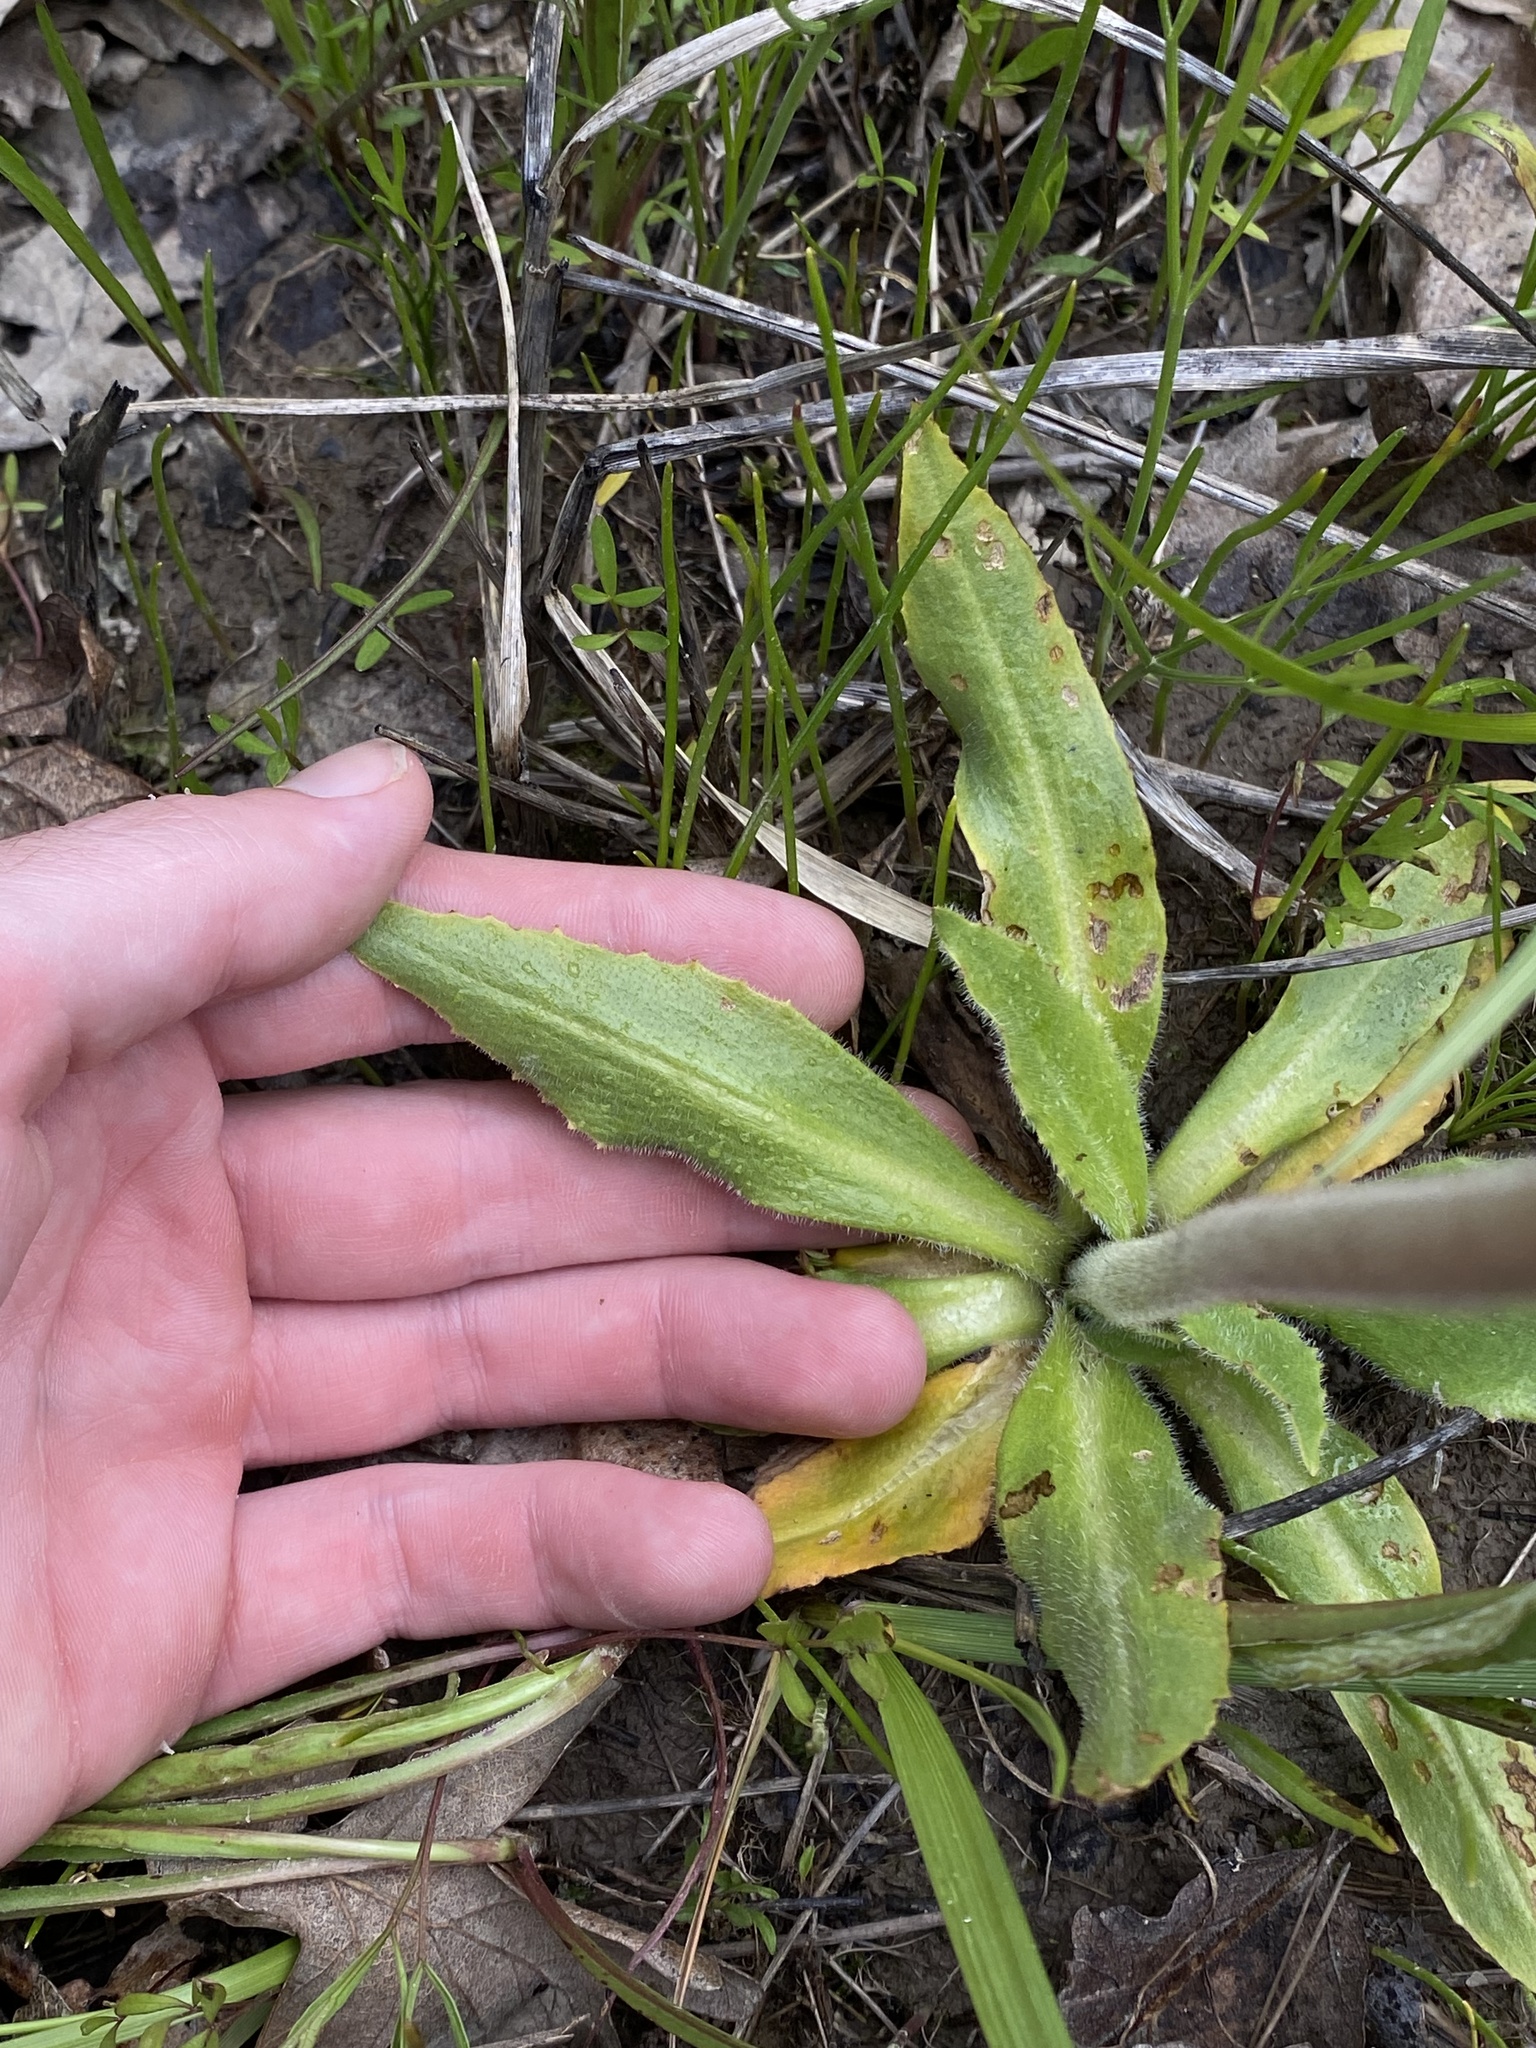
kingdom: Plantae
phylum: Tracheophyta
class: Magnoliopsida
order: Saxifragales
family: Saxifragaceae
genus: Micranthes
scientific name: Micranthes oregana
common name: Bog saxifrage
